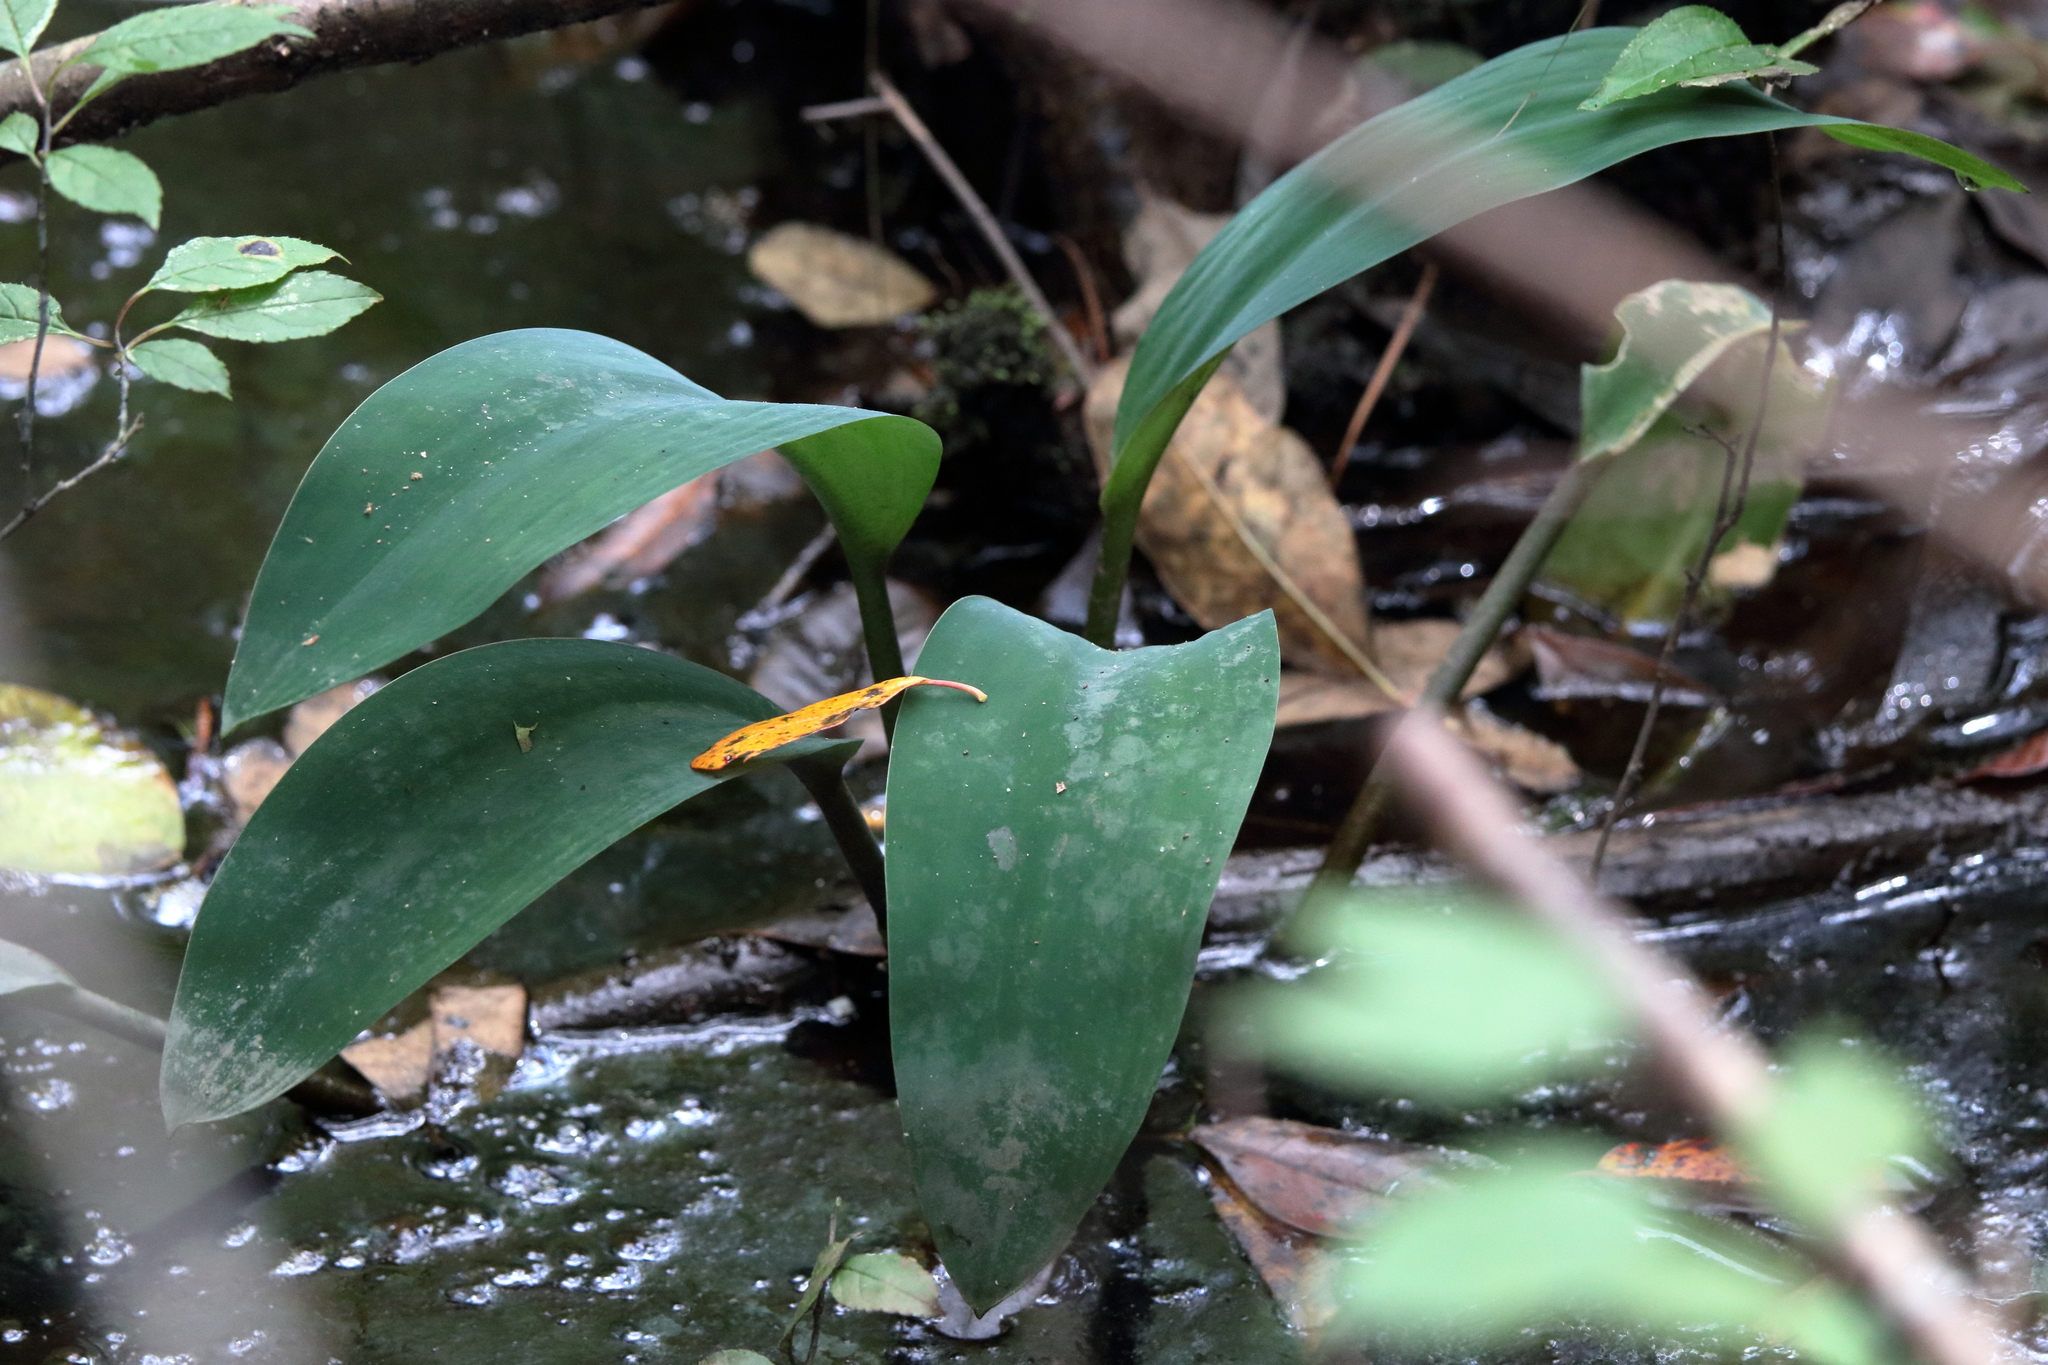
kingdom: Plantae
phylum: Tracheophyta
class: Liliopsida
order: Alismatales
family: Araceae
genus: Orontium
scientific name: Orontium aquaticum
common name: Golden-club
